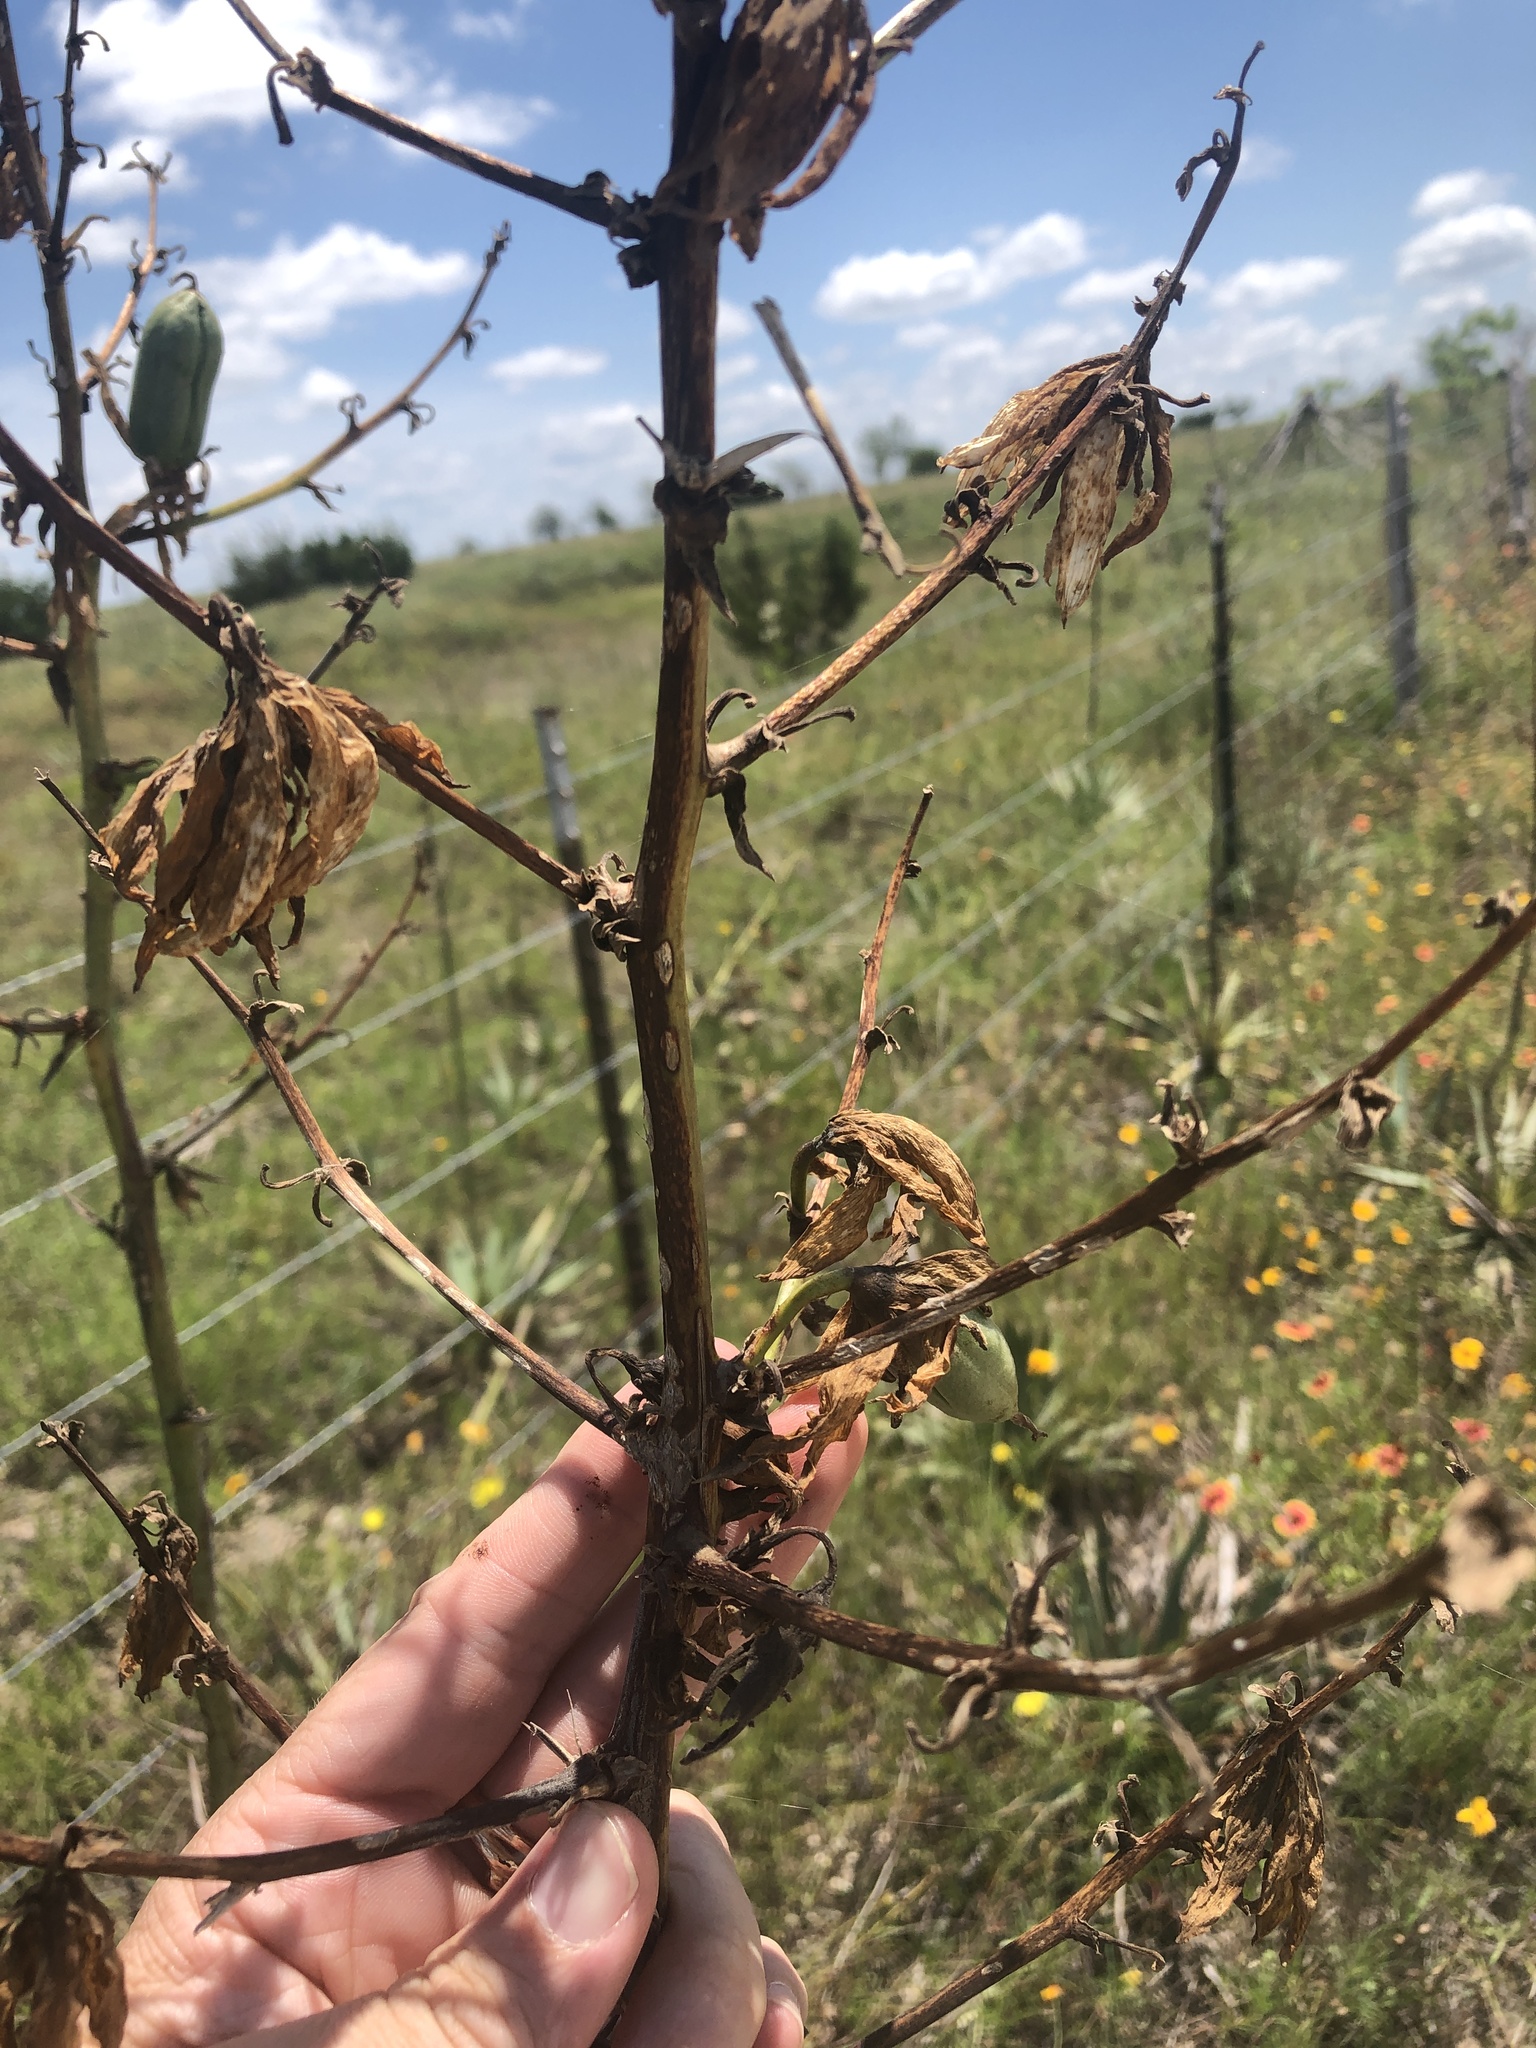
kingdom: Plantae
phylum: Tracheophyta
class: Liliopsida
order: Asparagales
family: Asparagaceae
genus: Yucca
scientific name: Yucca pallida
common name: Pale leaf yucca
